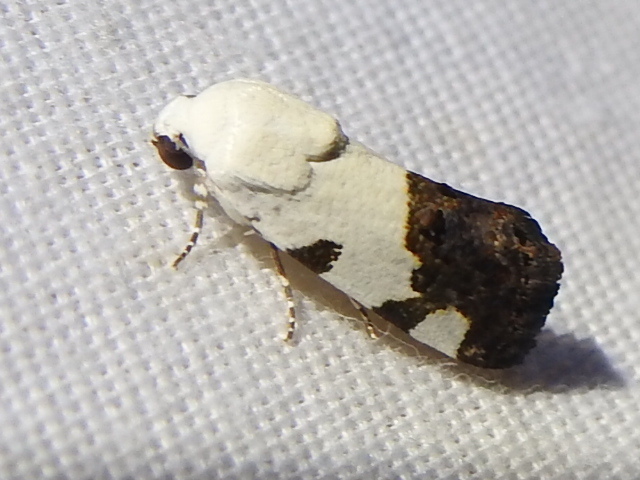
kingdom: Animalia
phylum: Arthropoda
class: Insecta
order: Lepidoptera
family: Noctuidae
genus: Acontia
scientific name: Acontia quadriplaga
